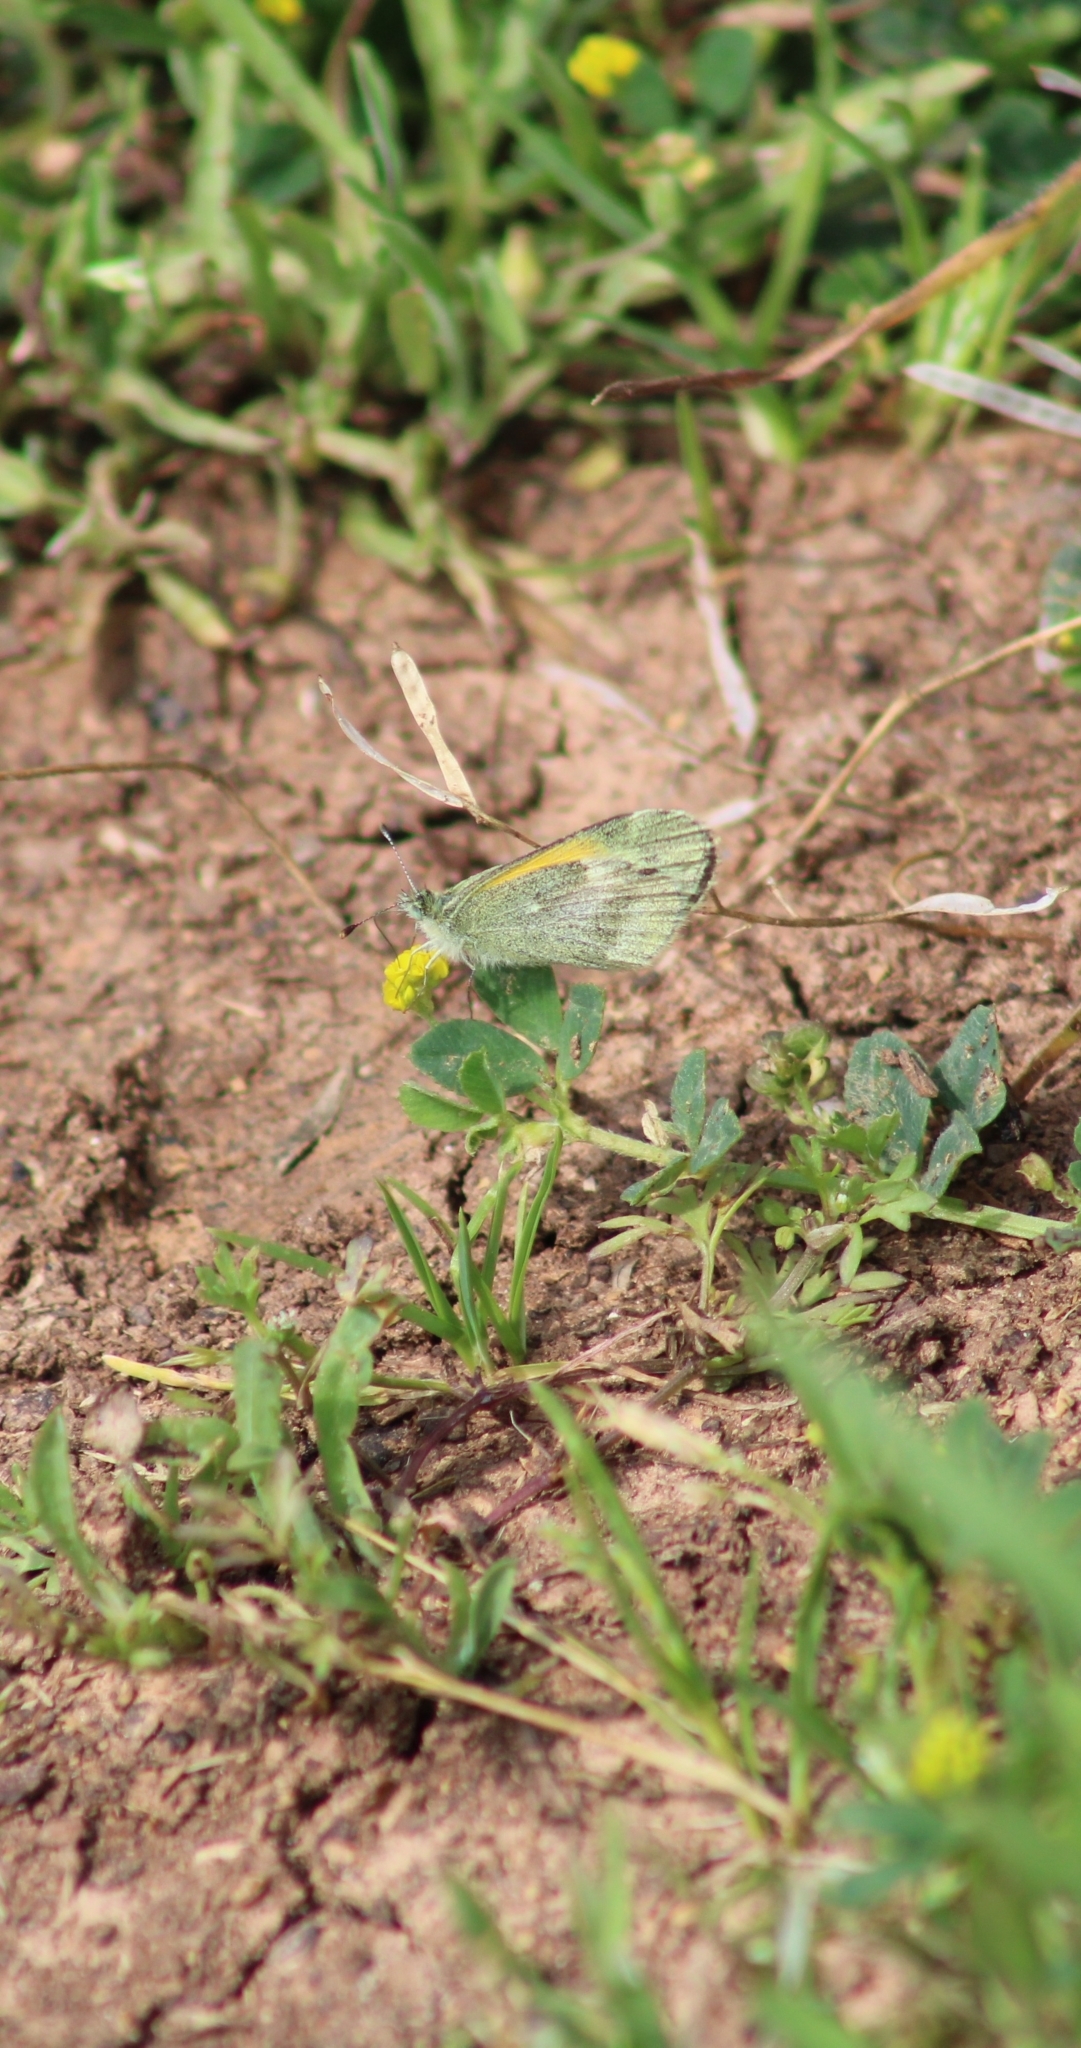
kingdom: Animalia
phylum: Arthropoda
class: Insecta
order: Lepidoptera
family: Pieridae
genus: Nathalis
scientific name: Nathalis iole
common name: Dainty sulphur
